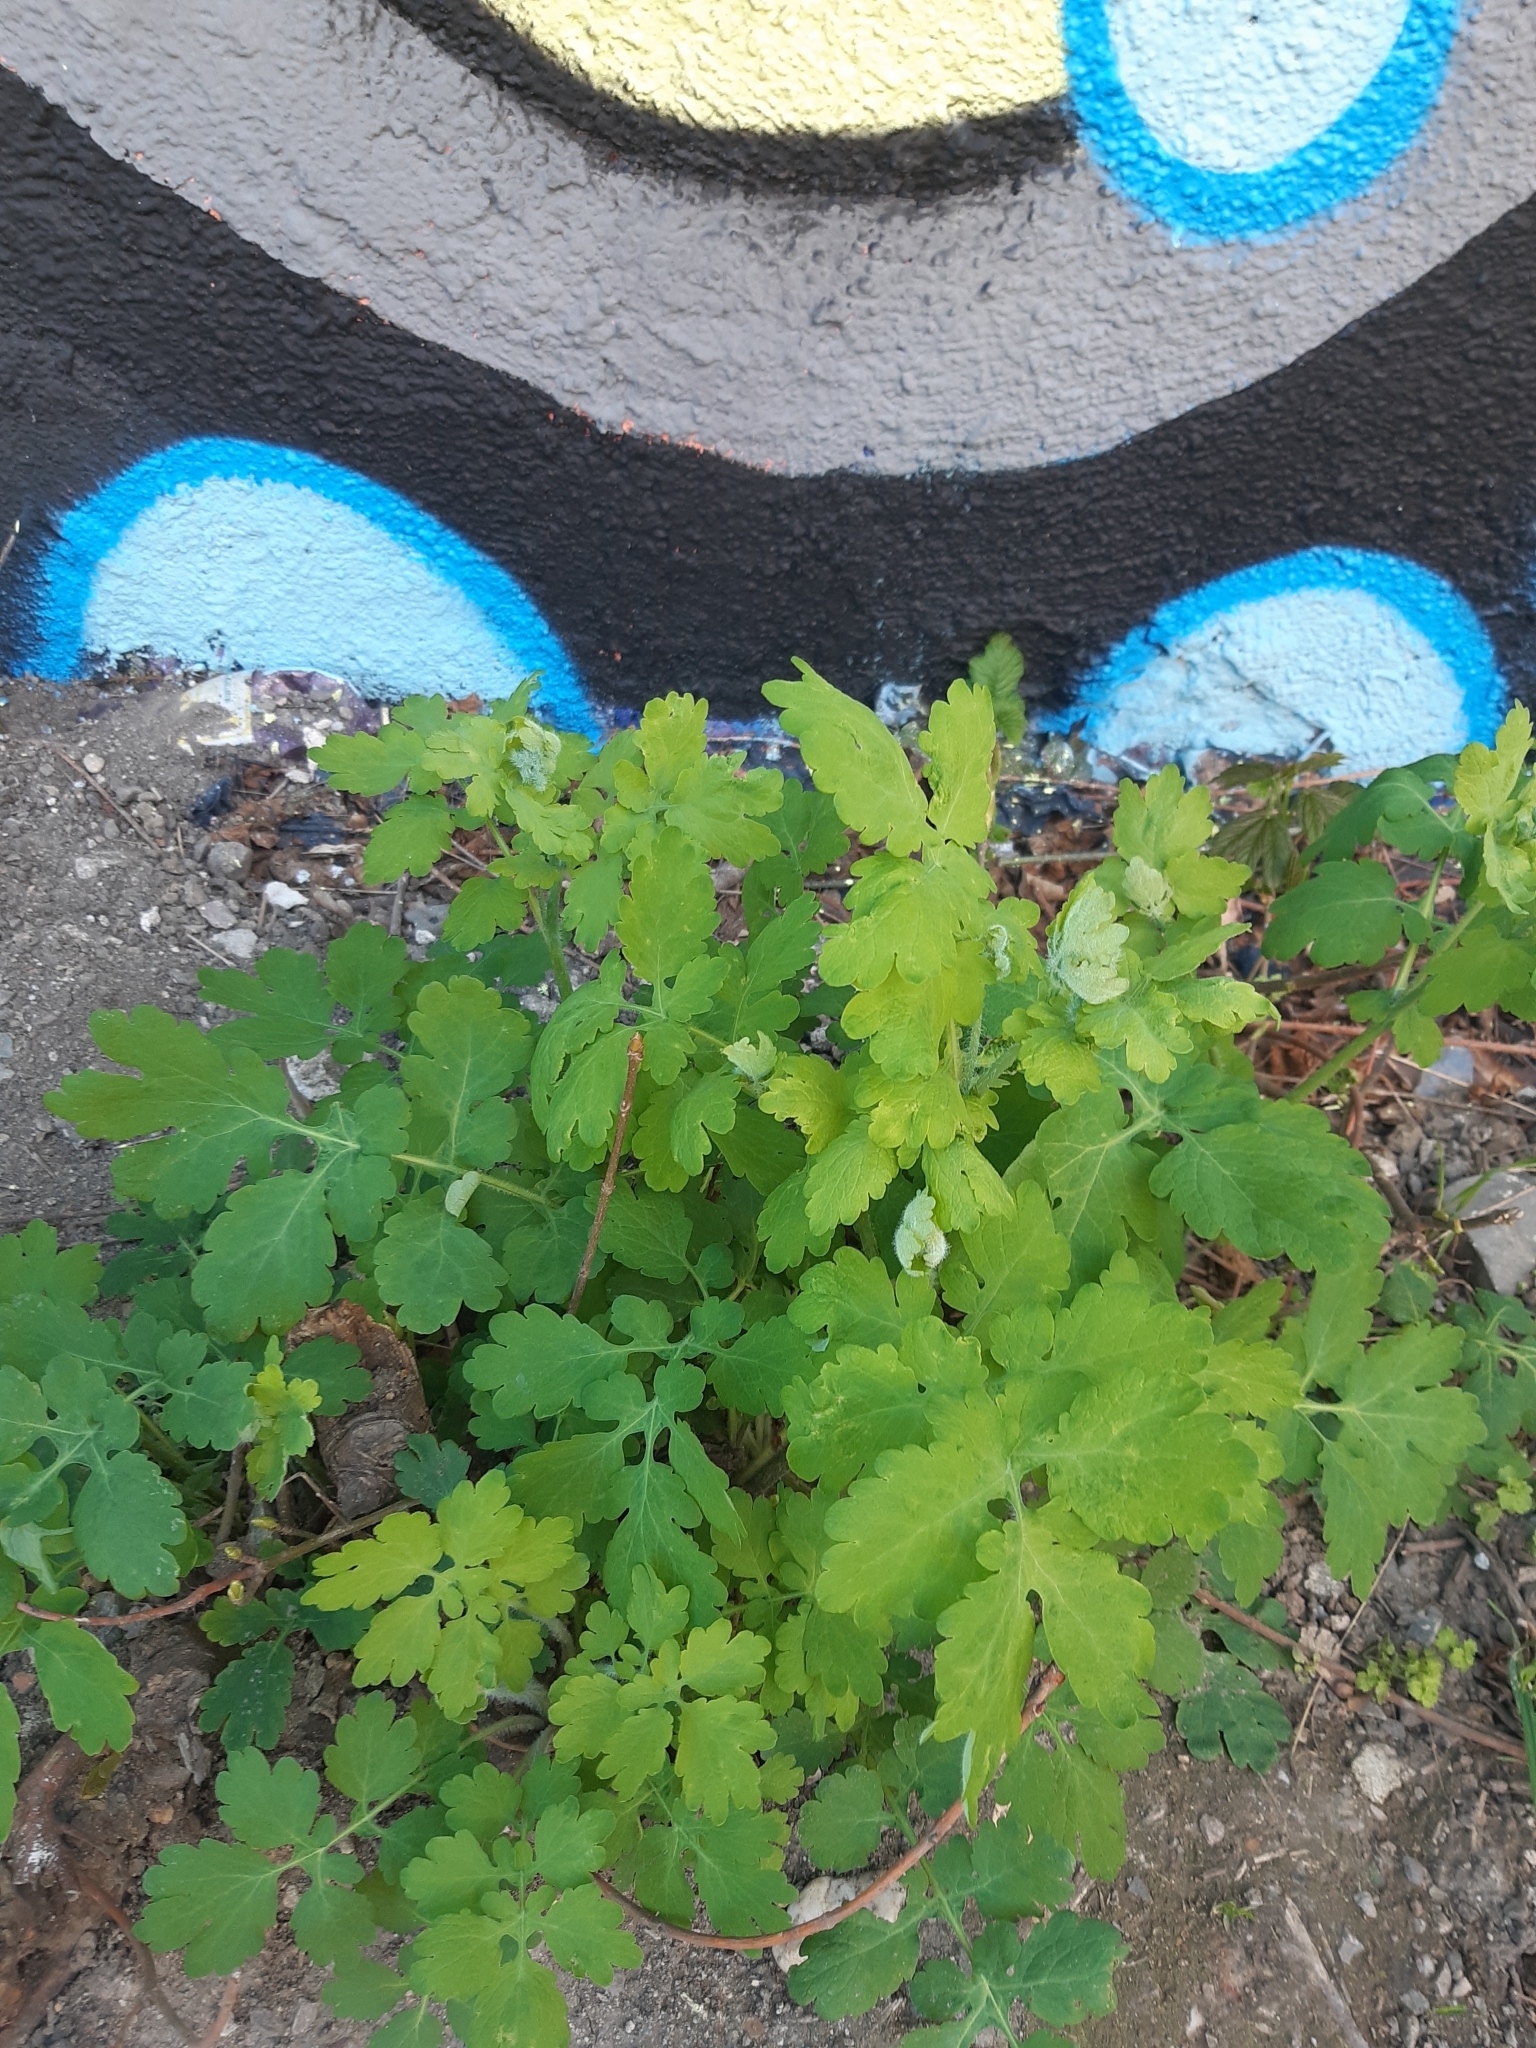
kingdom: Plantae
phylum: Tracheophyta
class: Magnoliopsida
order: Ranunculales
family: Papaveraceae
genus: Chelidonium
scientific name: Chelidonium majus
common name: Greater celandine
